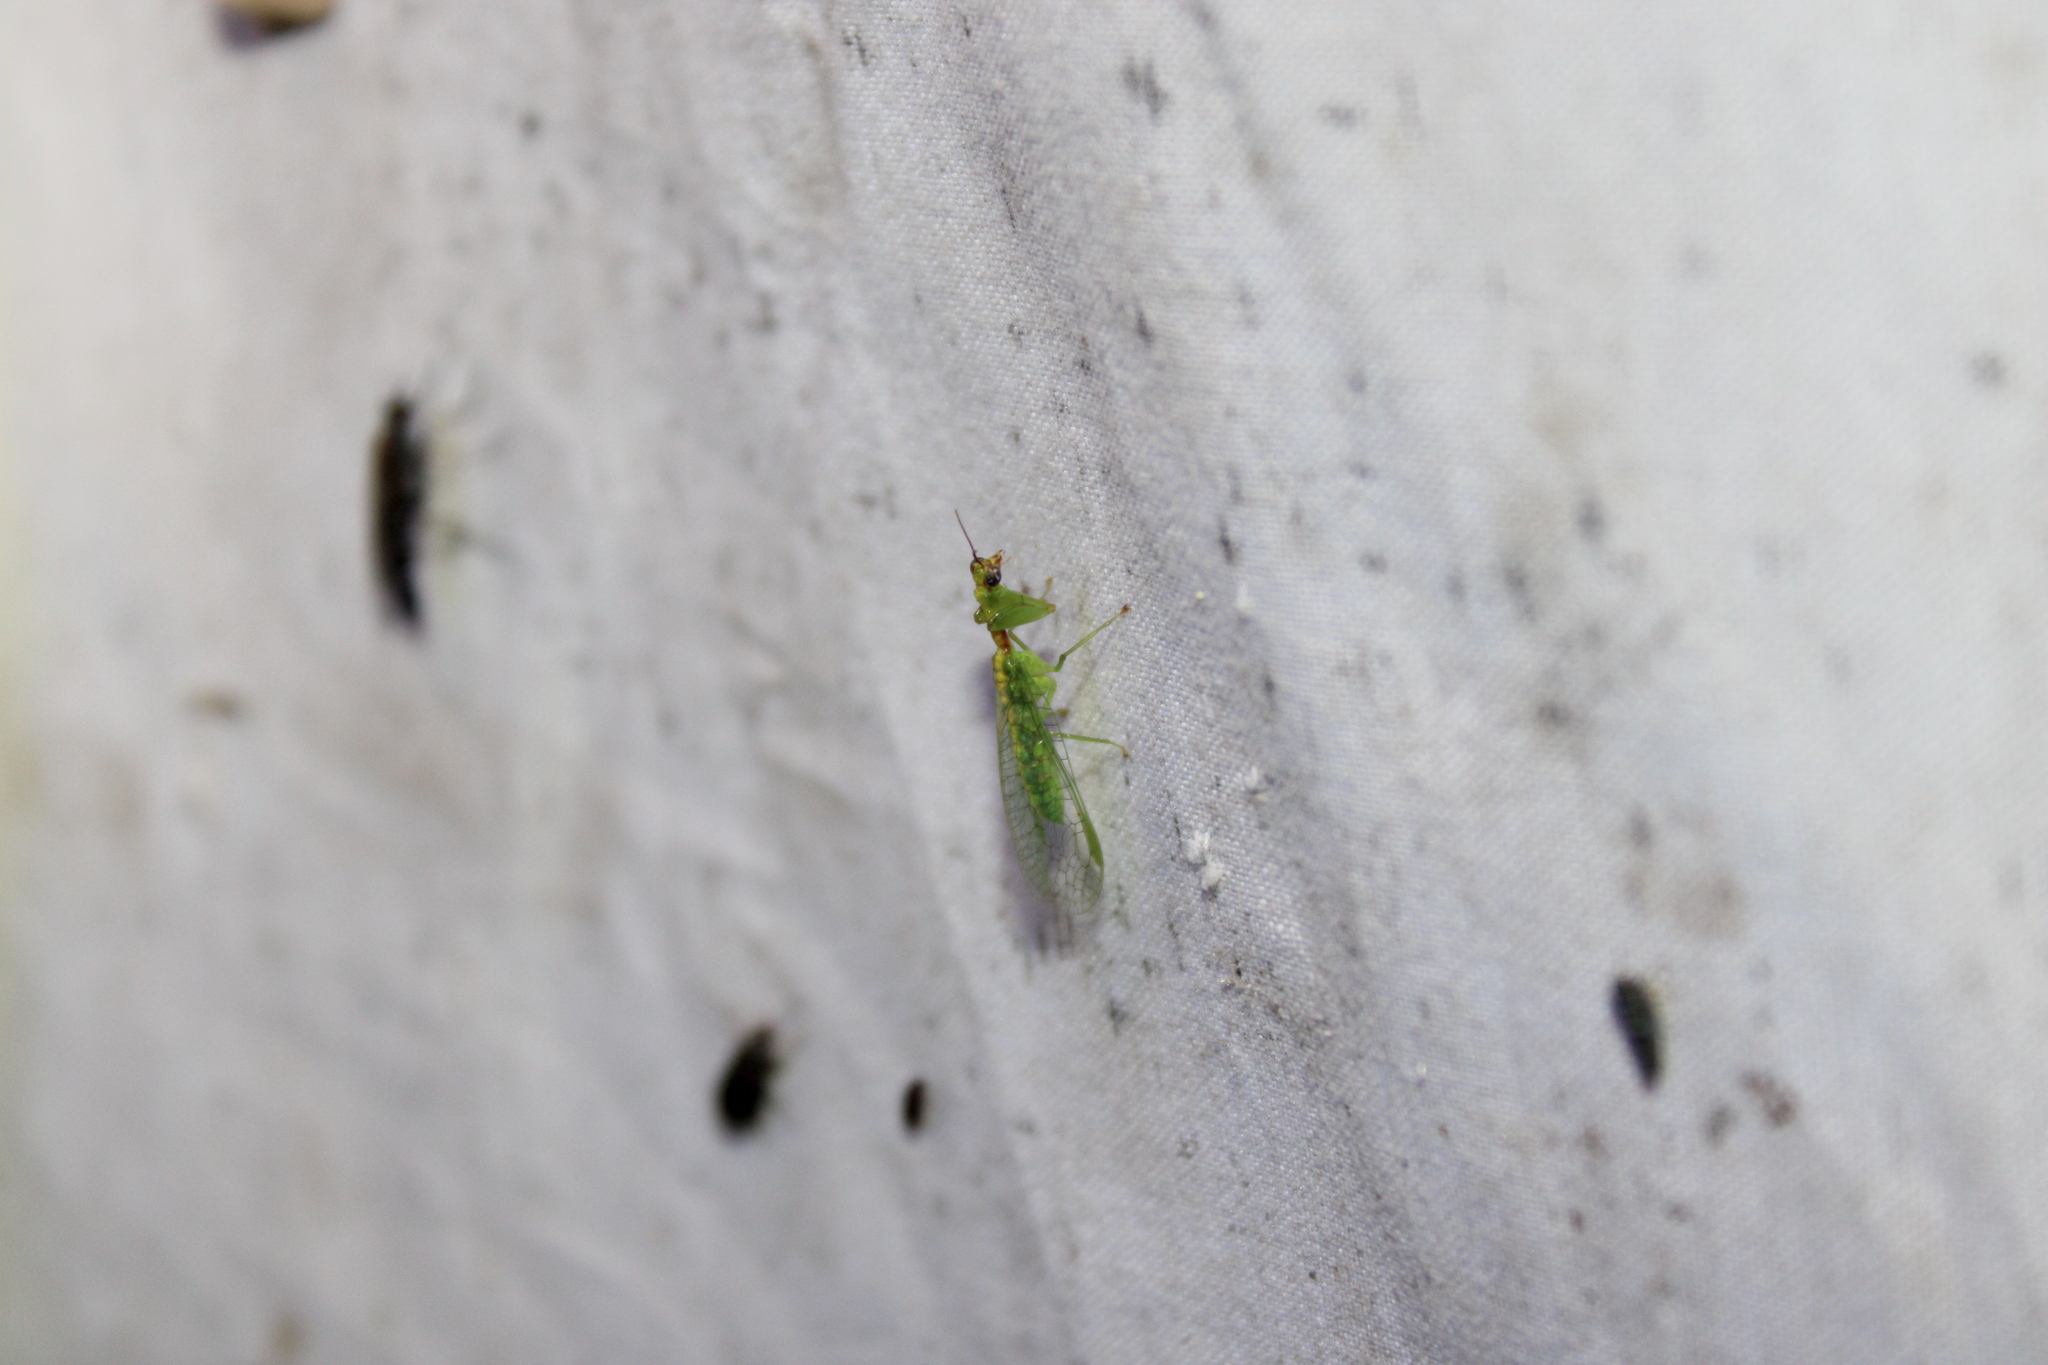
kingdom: Animalia
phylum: Arthropoda
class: Insecta
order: Neuroptera
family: Mantispidae
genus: Zeugomantispa
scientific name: Zeugomantispa minuta
